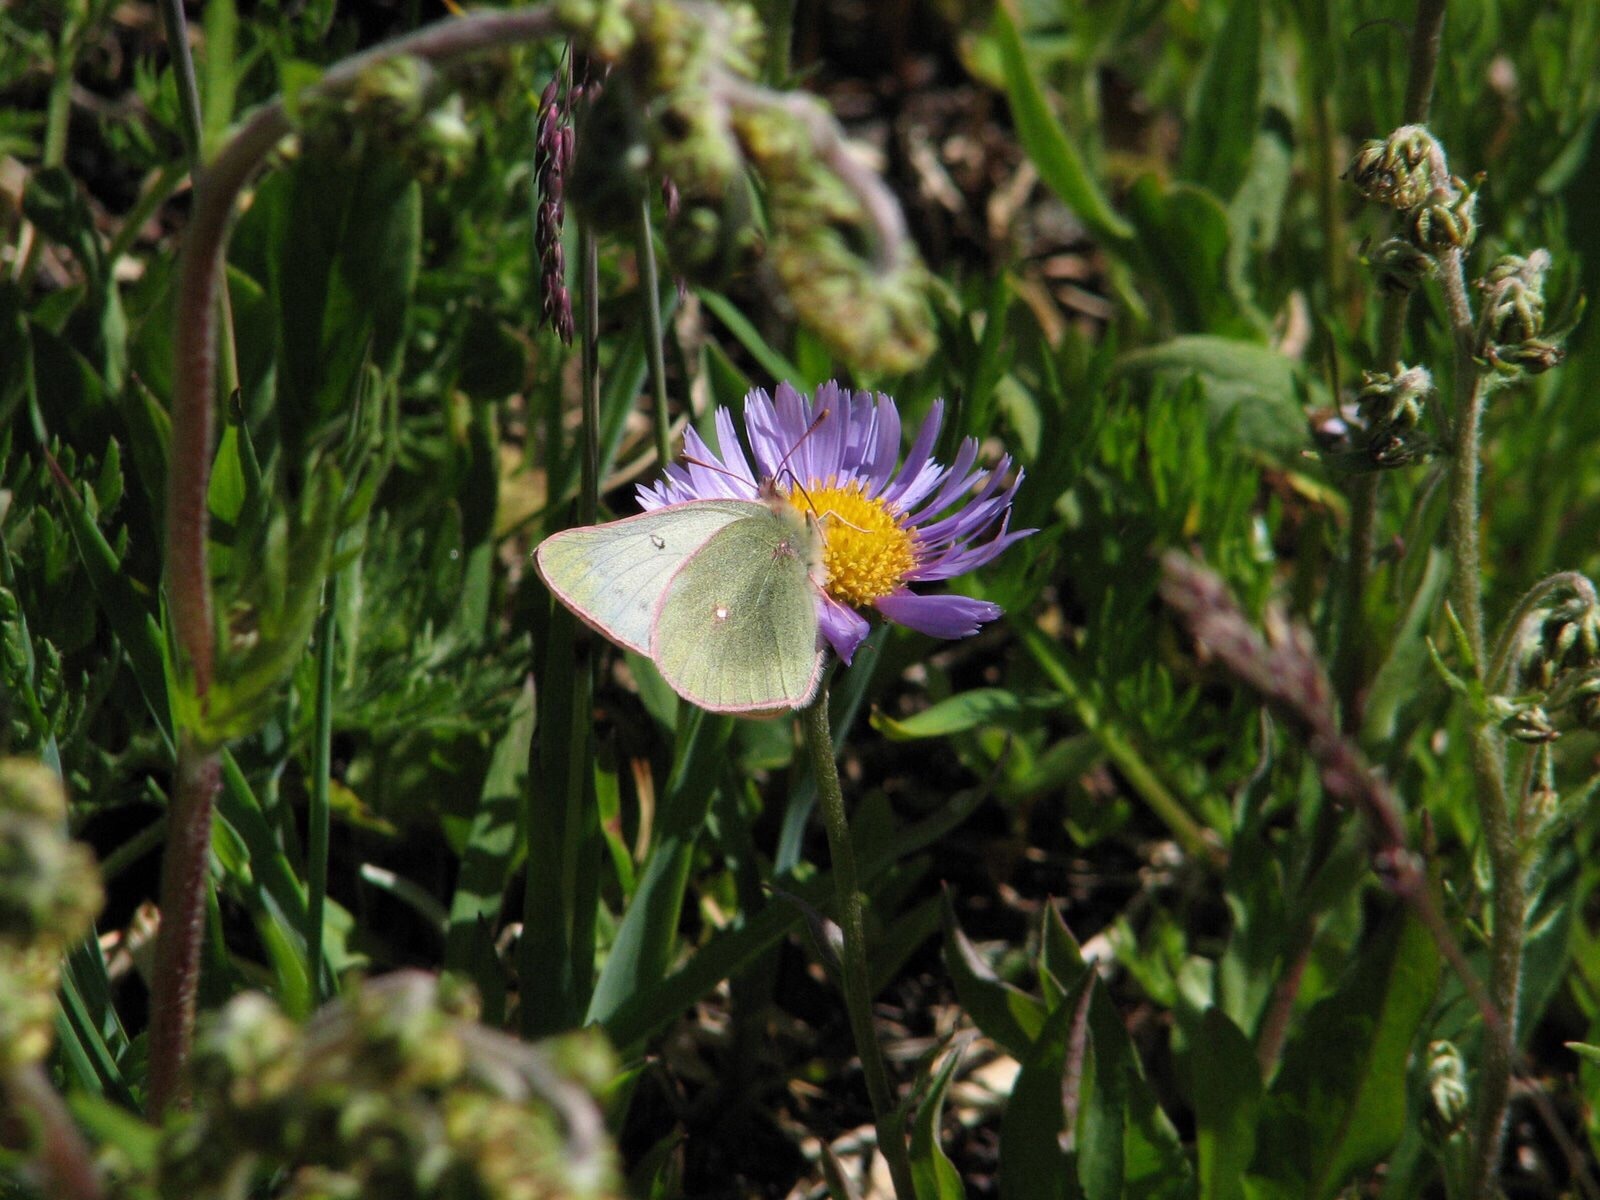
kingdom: Animalia
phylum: Arthropoda
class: Insecta
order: Lepidoptera
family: Pieridae
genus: Colias
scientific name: Colias nastes
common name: Labrador sulphur
